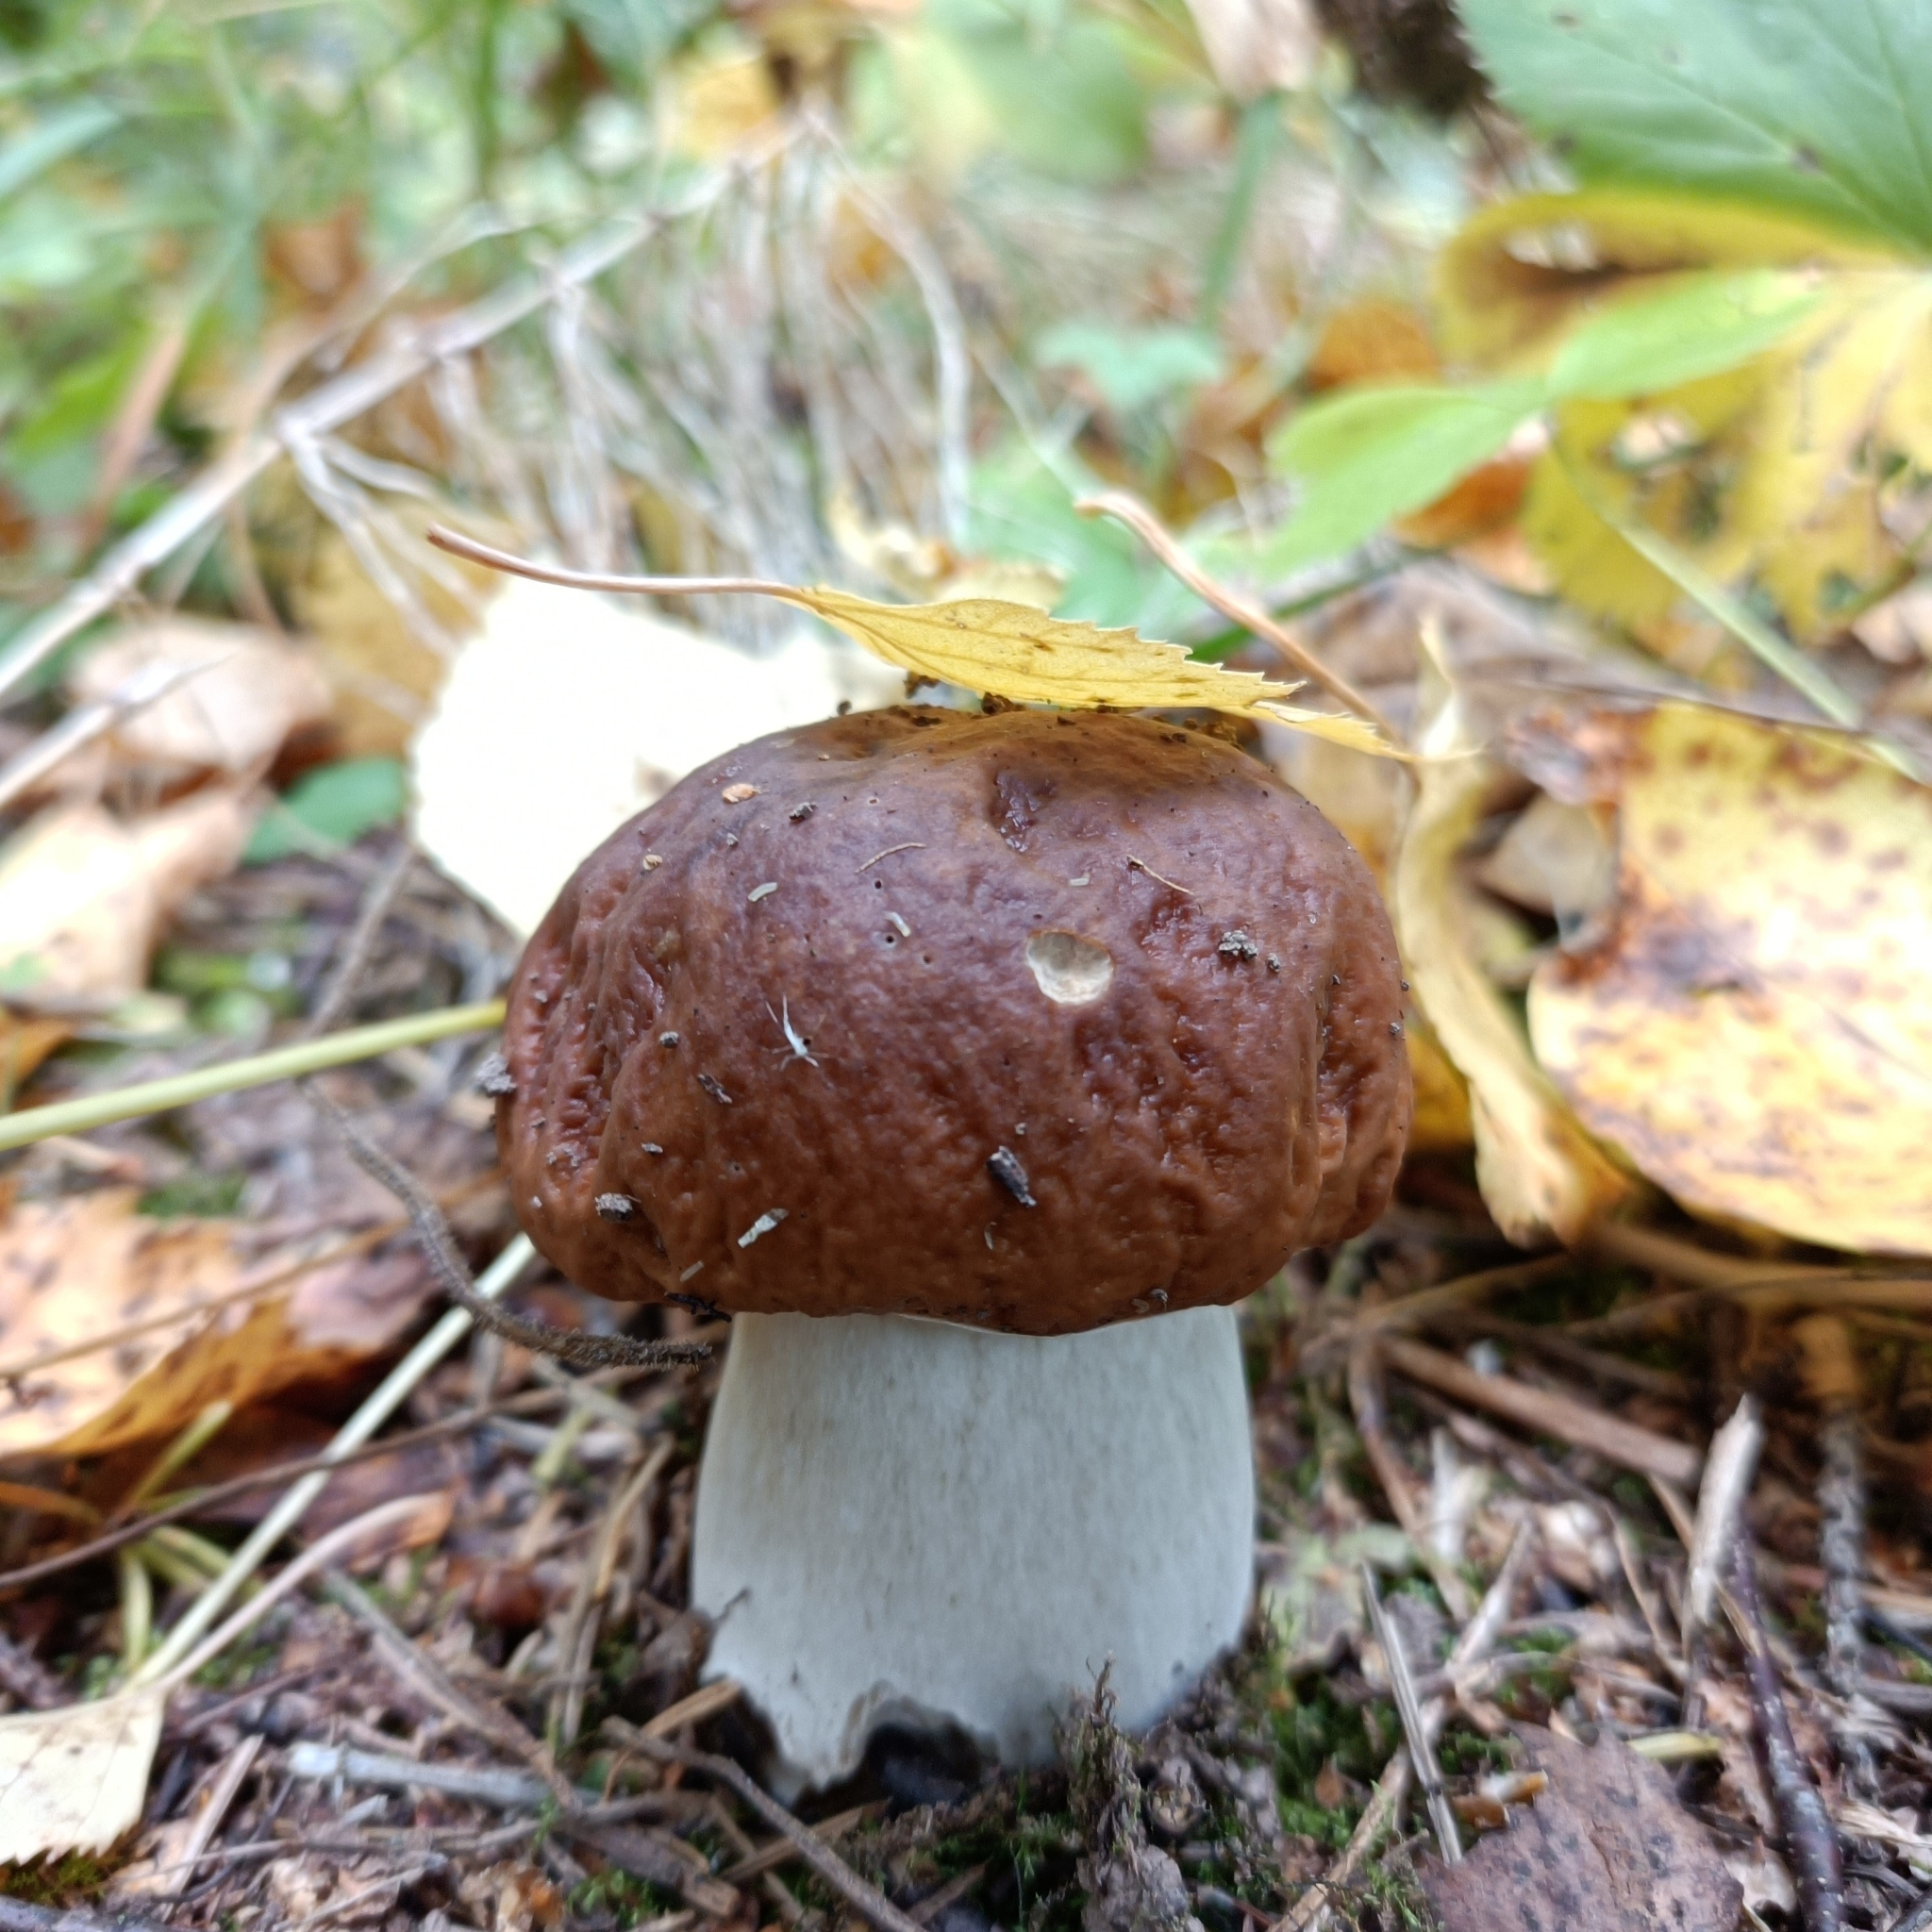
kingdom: Fungi
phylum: Basidiomycota
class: Agaricomycetes
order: Boletales
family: Boletaceae
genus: Boletus
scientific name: Boletus edulis
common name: Cep
